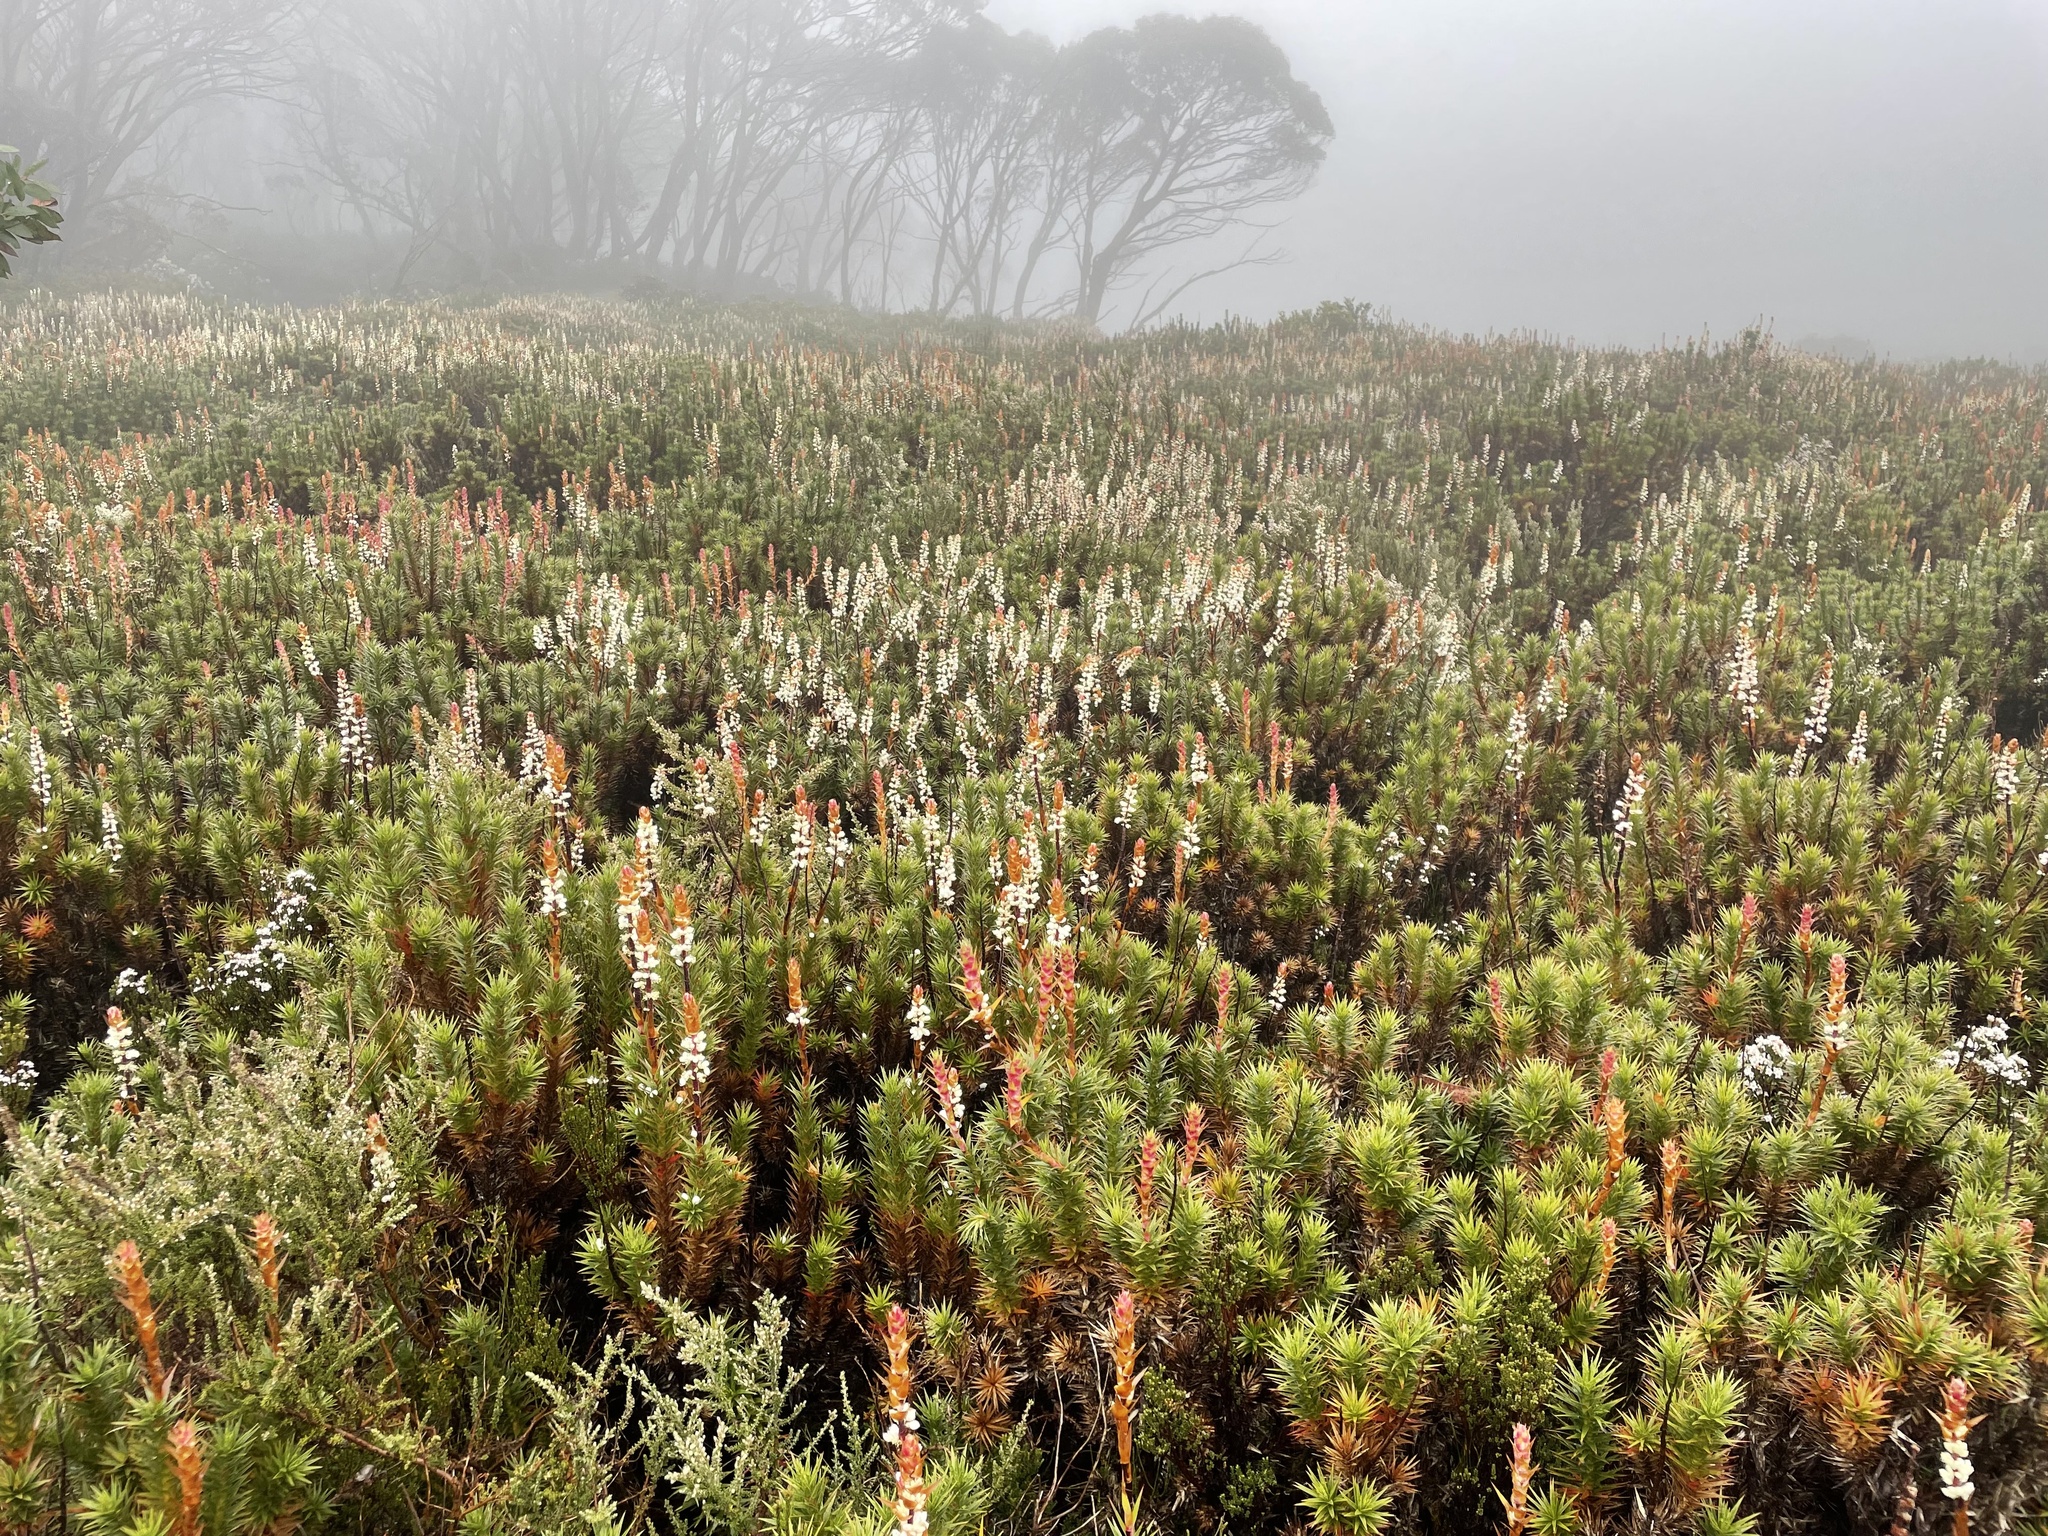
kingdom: Plantae
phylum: Tracheophyta
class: Magnoliopsida
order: Ericales
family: Ericaceae
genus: Dracophyllum
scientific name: Dracophyllum continentis
